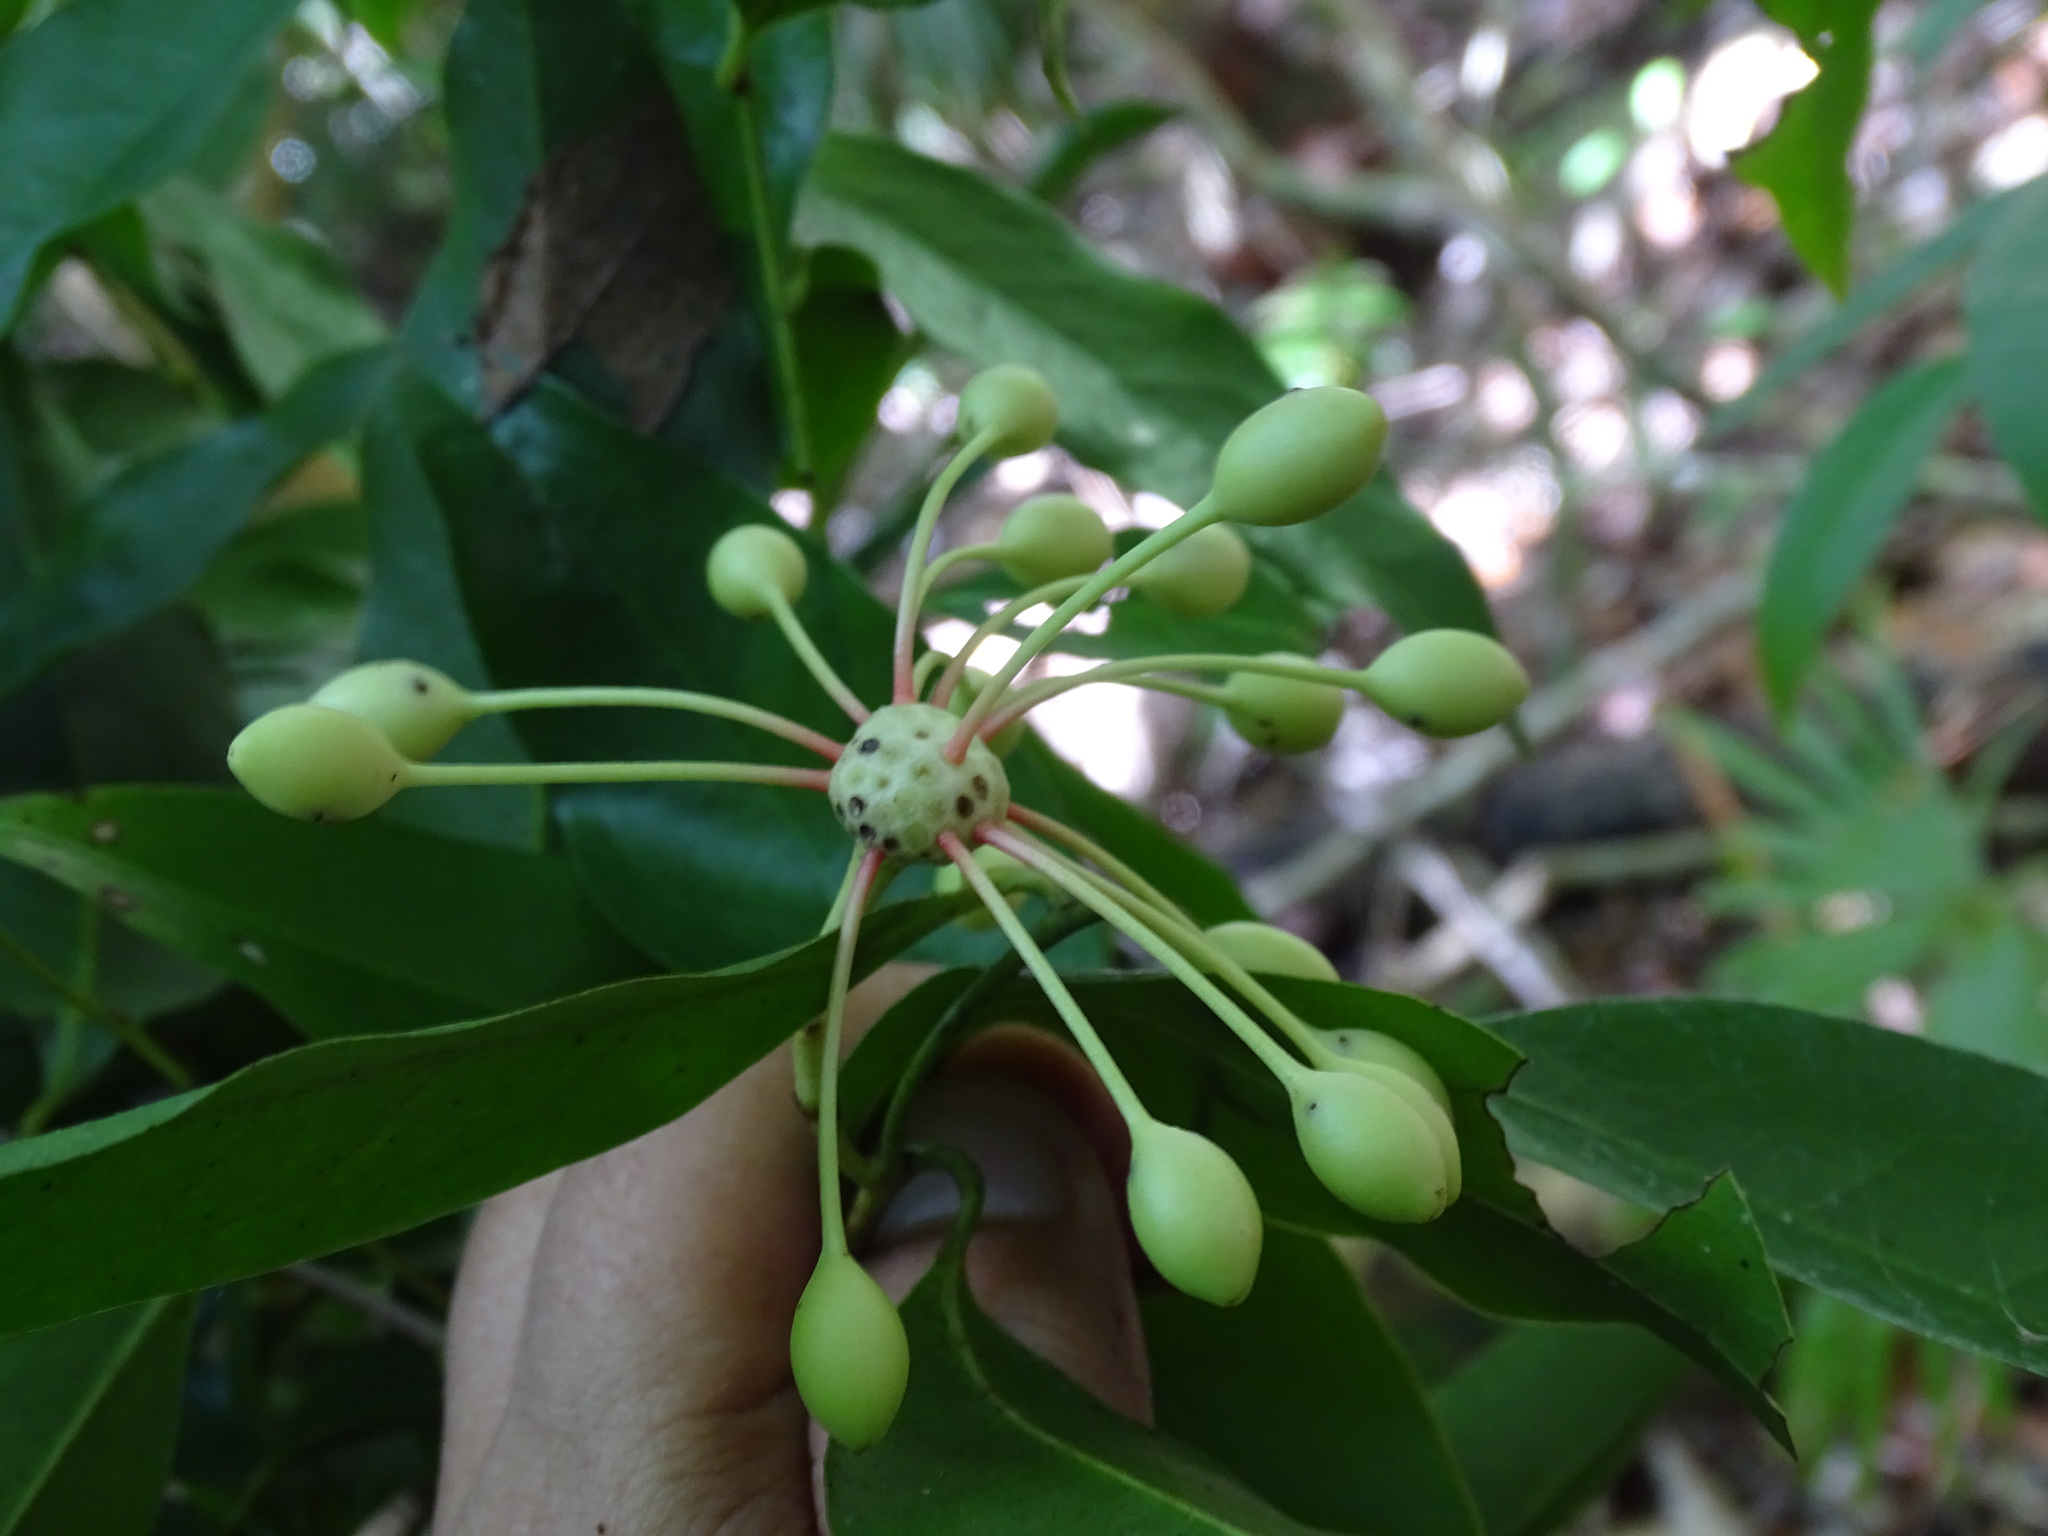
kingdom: Plantae
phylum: Tracheophyta
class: Magnoliopsida
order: Magnoliales
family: Annonaceae
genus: Mosannona
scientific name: Mosannona depressa
